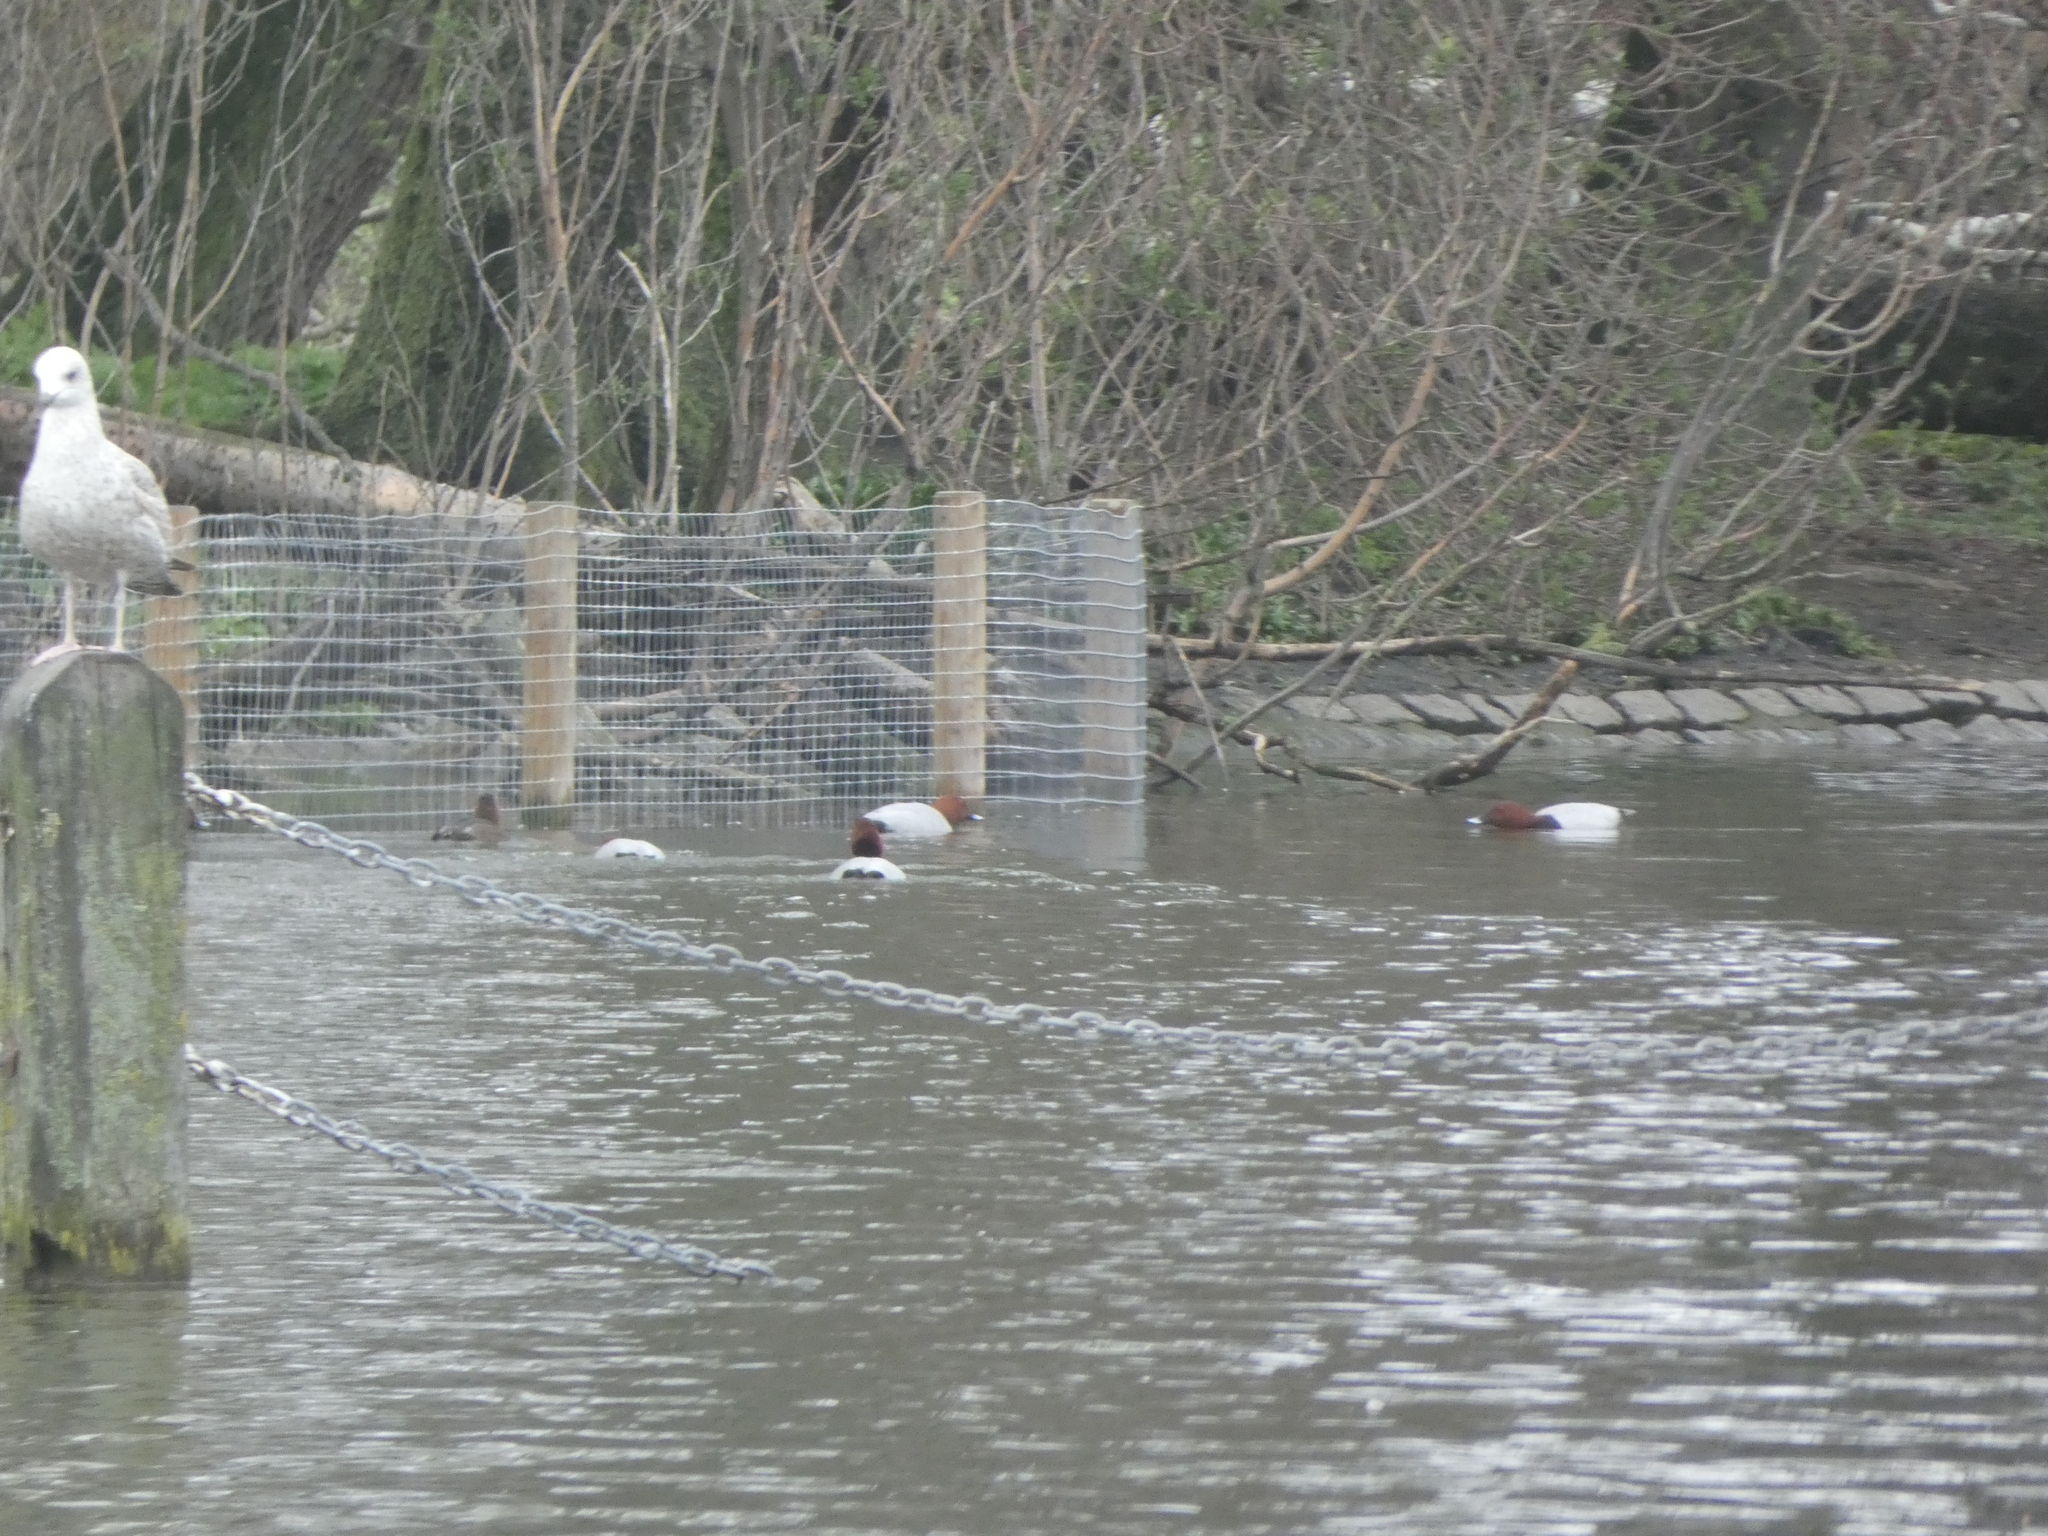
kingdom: Animalia
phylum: Chordata
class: Aves
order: Anseriformes
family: Anatidae
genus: Aythya
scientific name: Aythya ferina
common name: Common pochard
